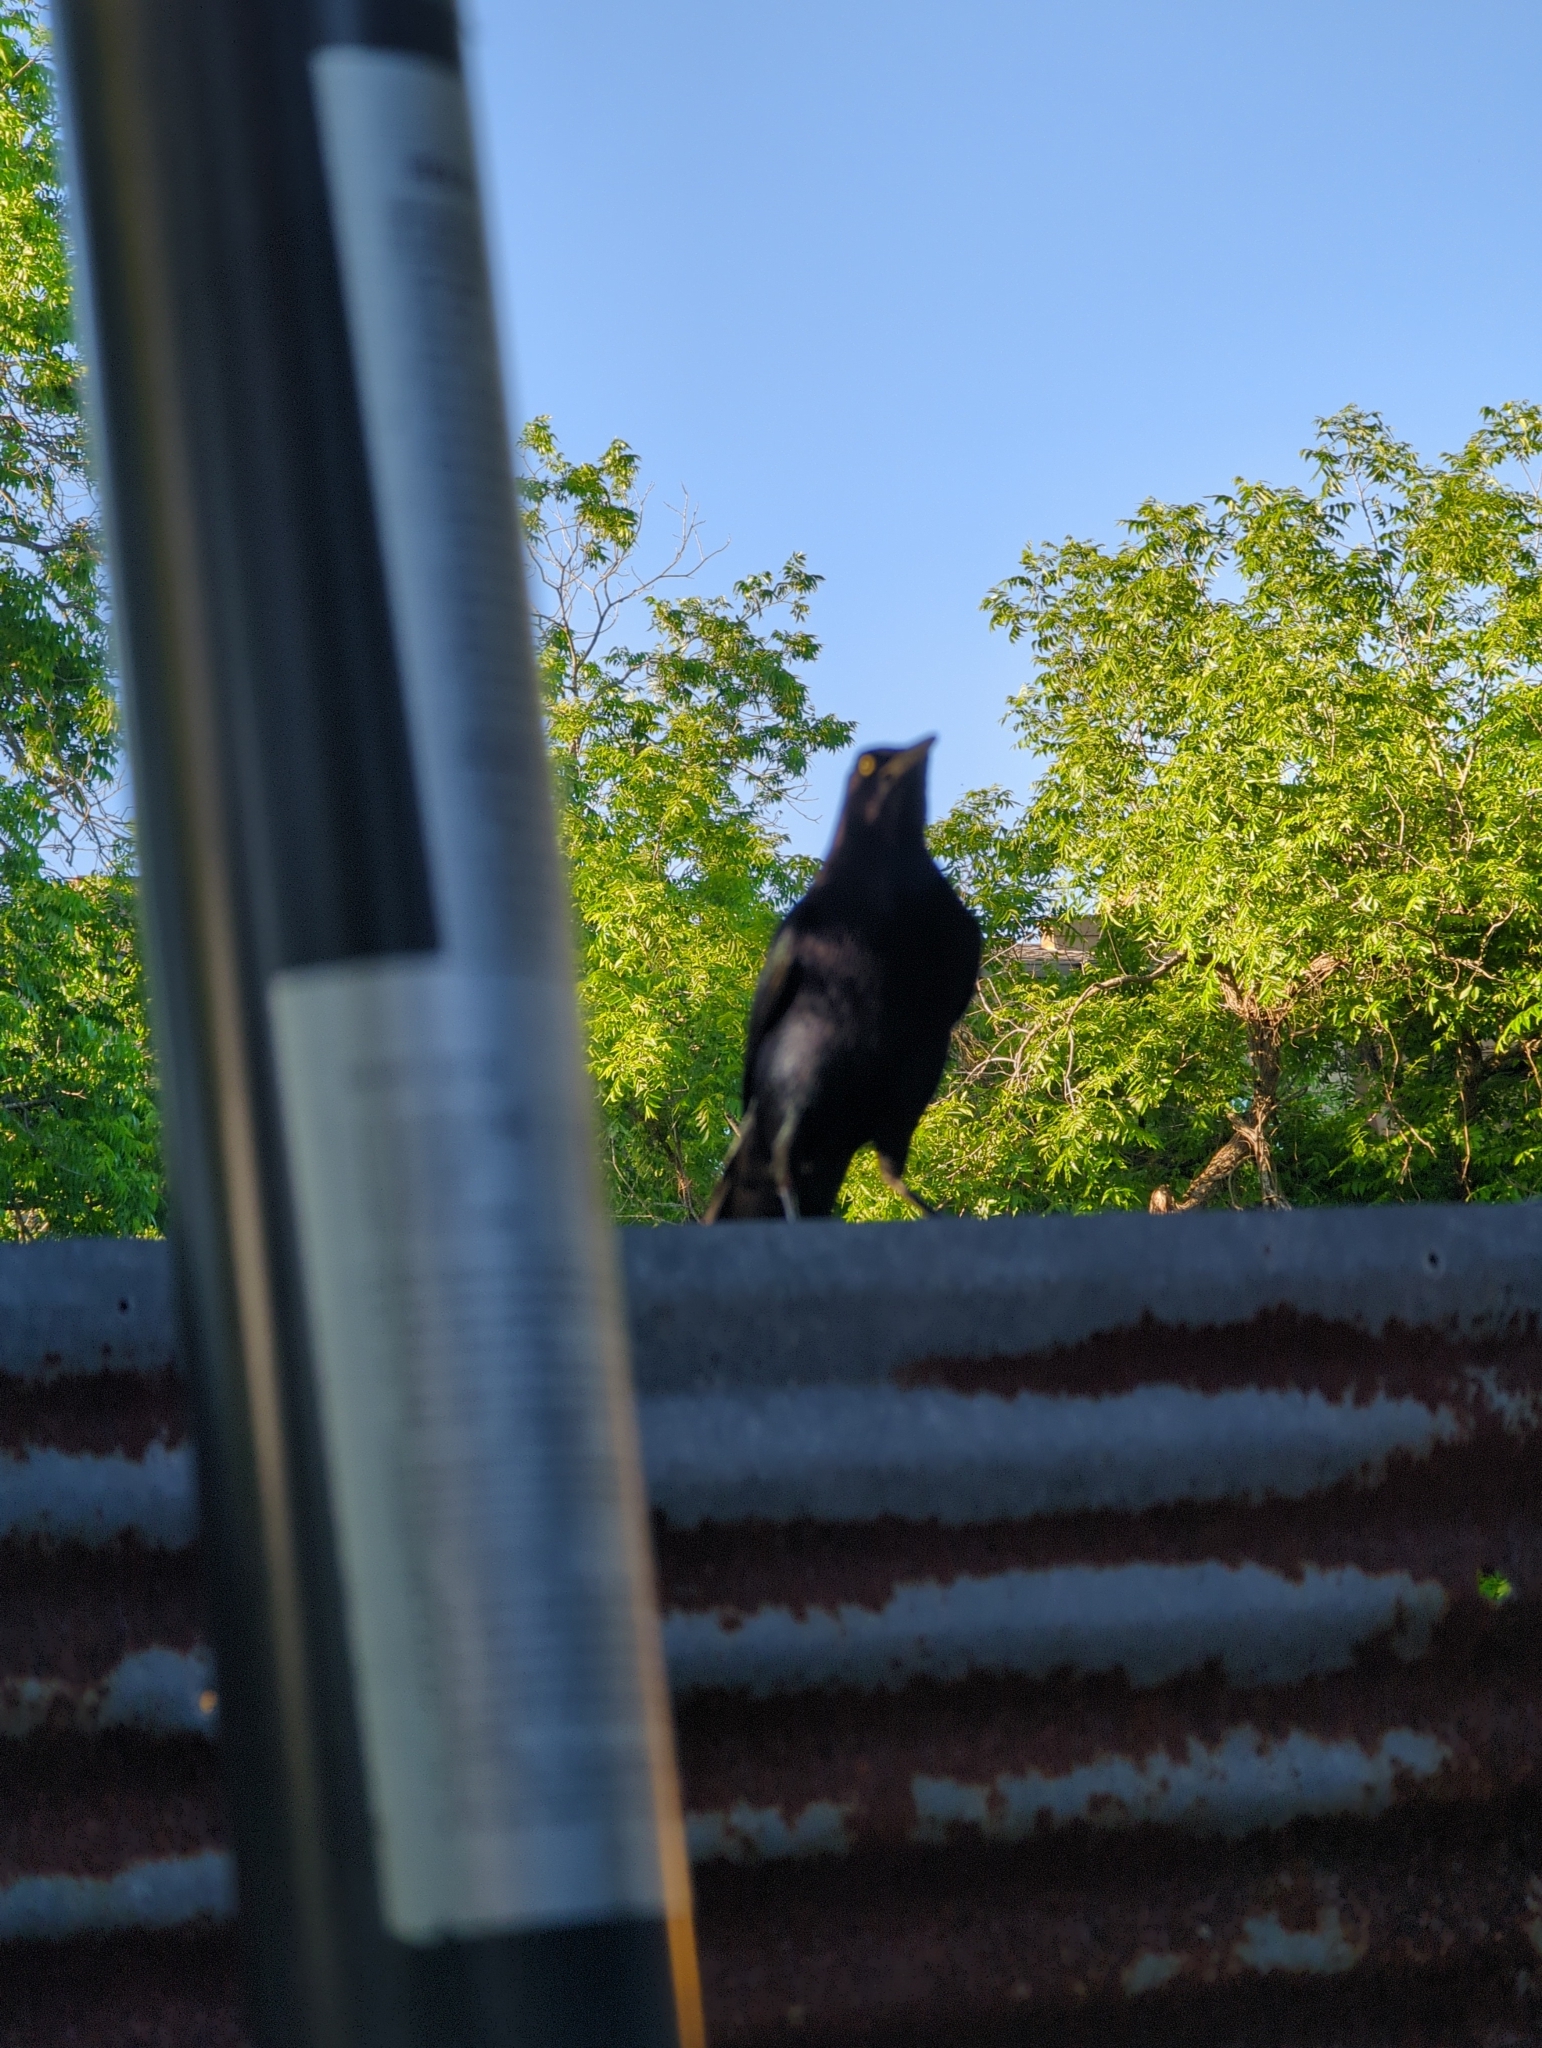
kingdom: Animalia
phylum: Chordata
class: Aves
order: Passeriformes
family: Icteridae
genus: Quiscalus
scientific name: Quiscalus mexicanus
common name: Great-tailed grackle
